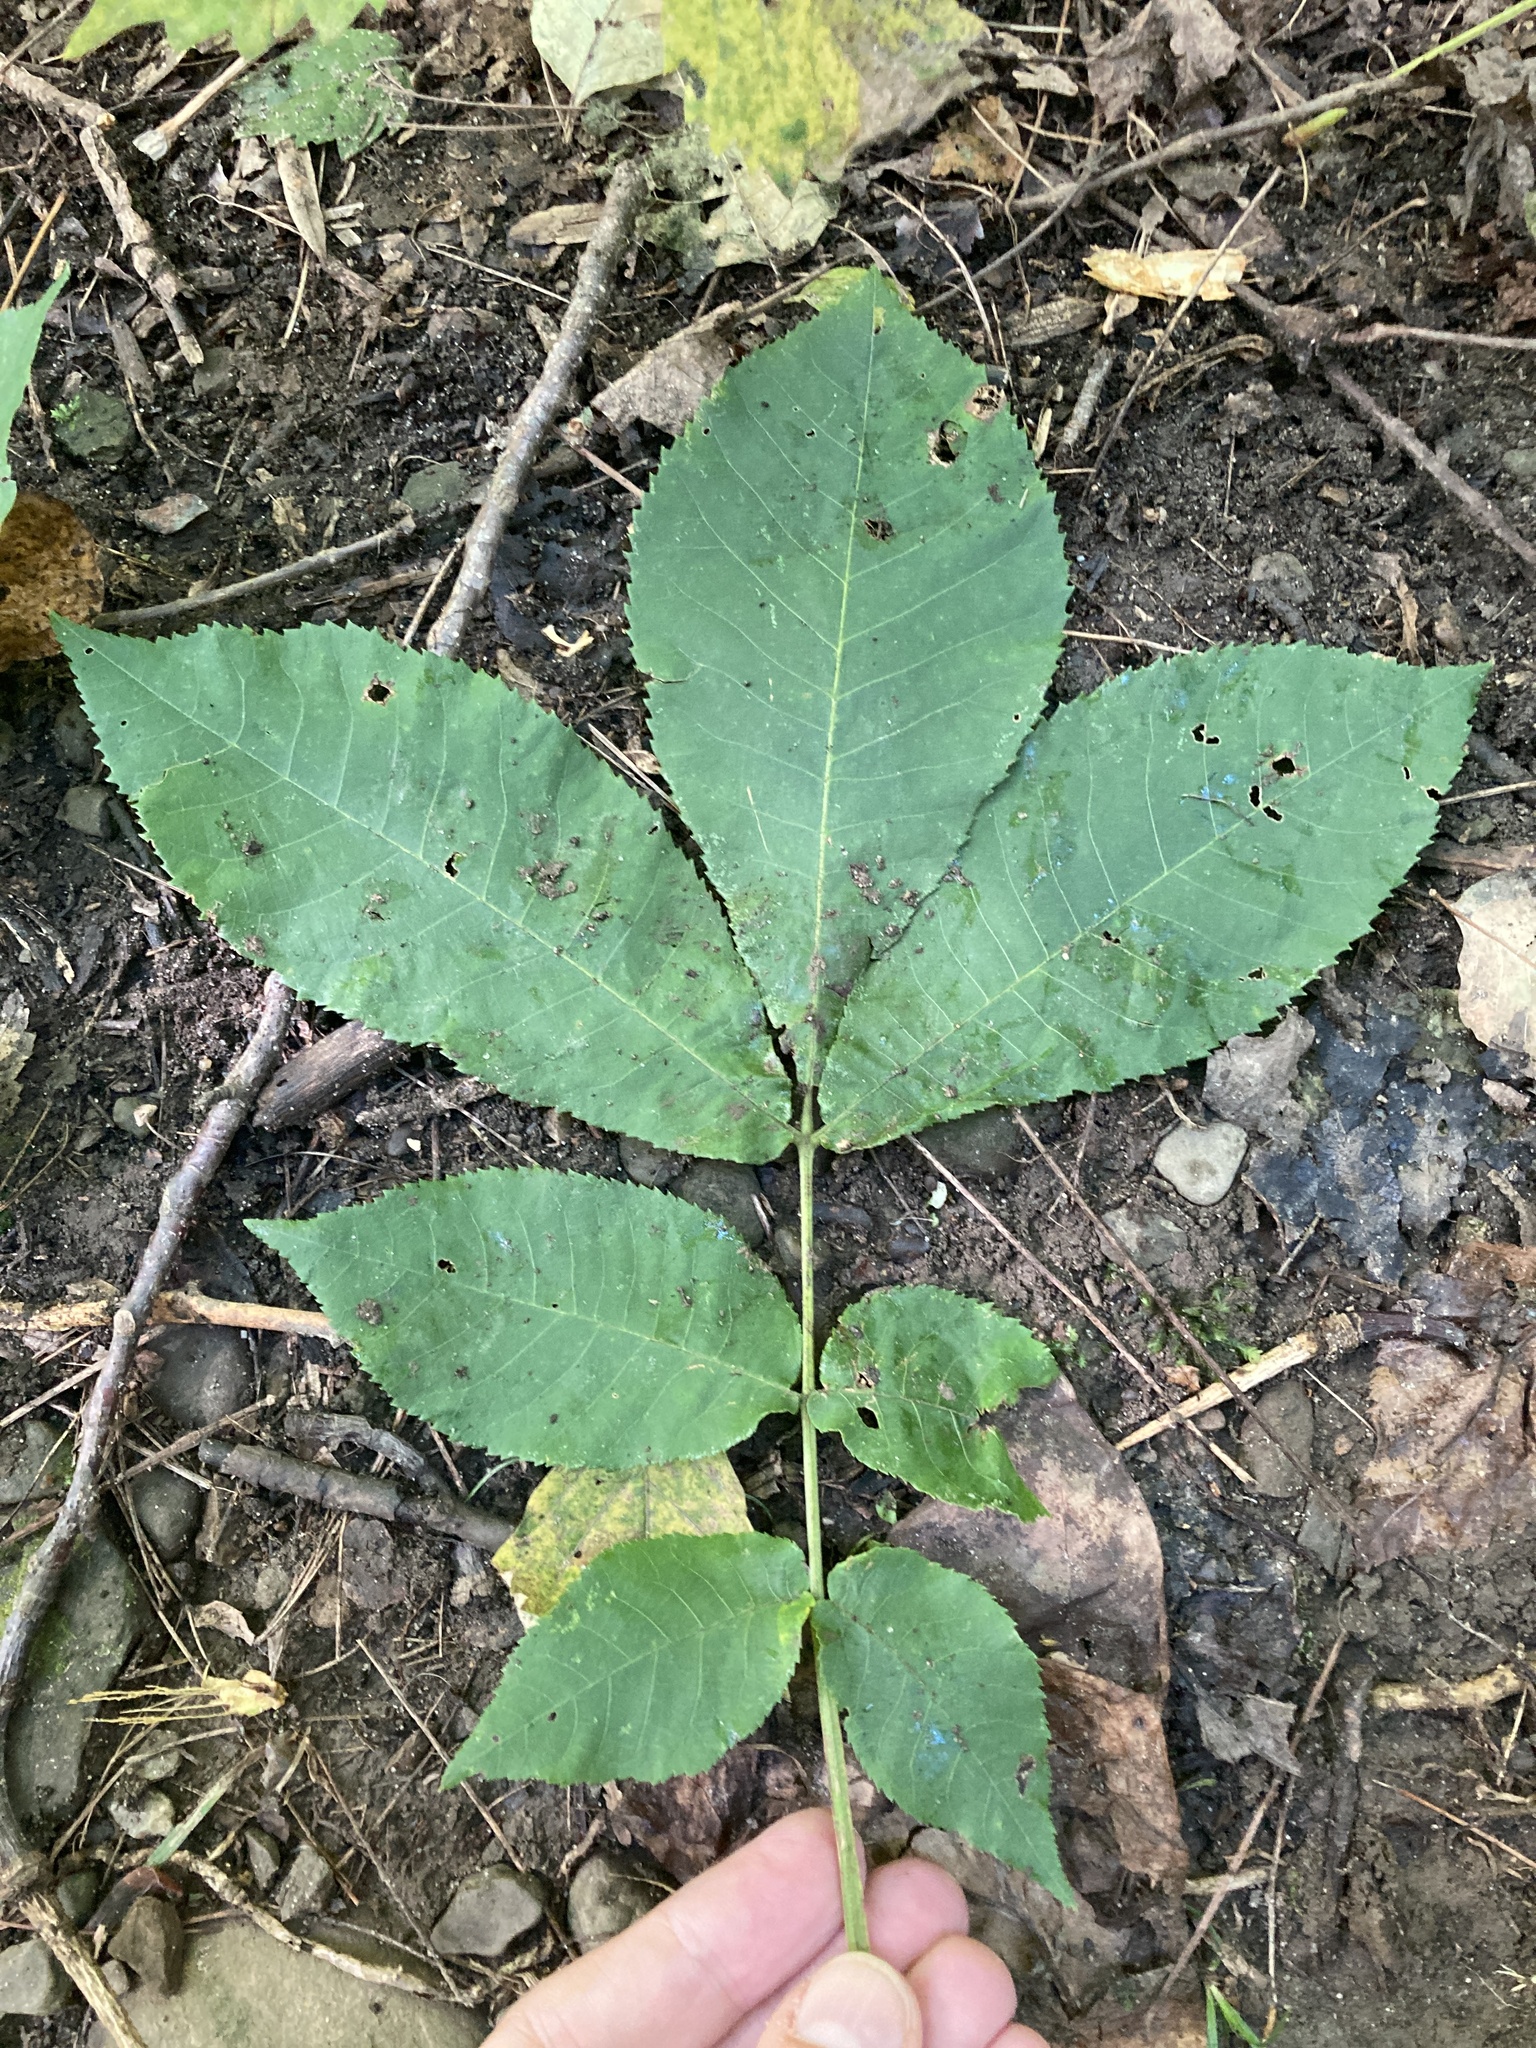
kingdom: Plantae
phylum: Tracheophyta
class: Magnoliopsida
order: Fagales
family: Juglandaceae
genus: Carya
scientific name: Carya cordiformis
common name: Bitternut hickory
